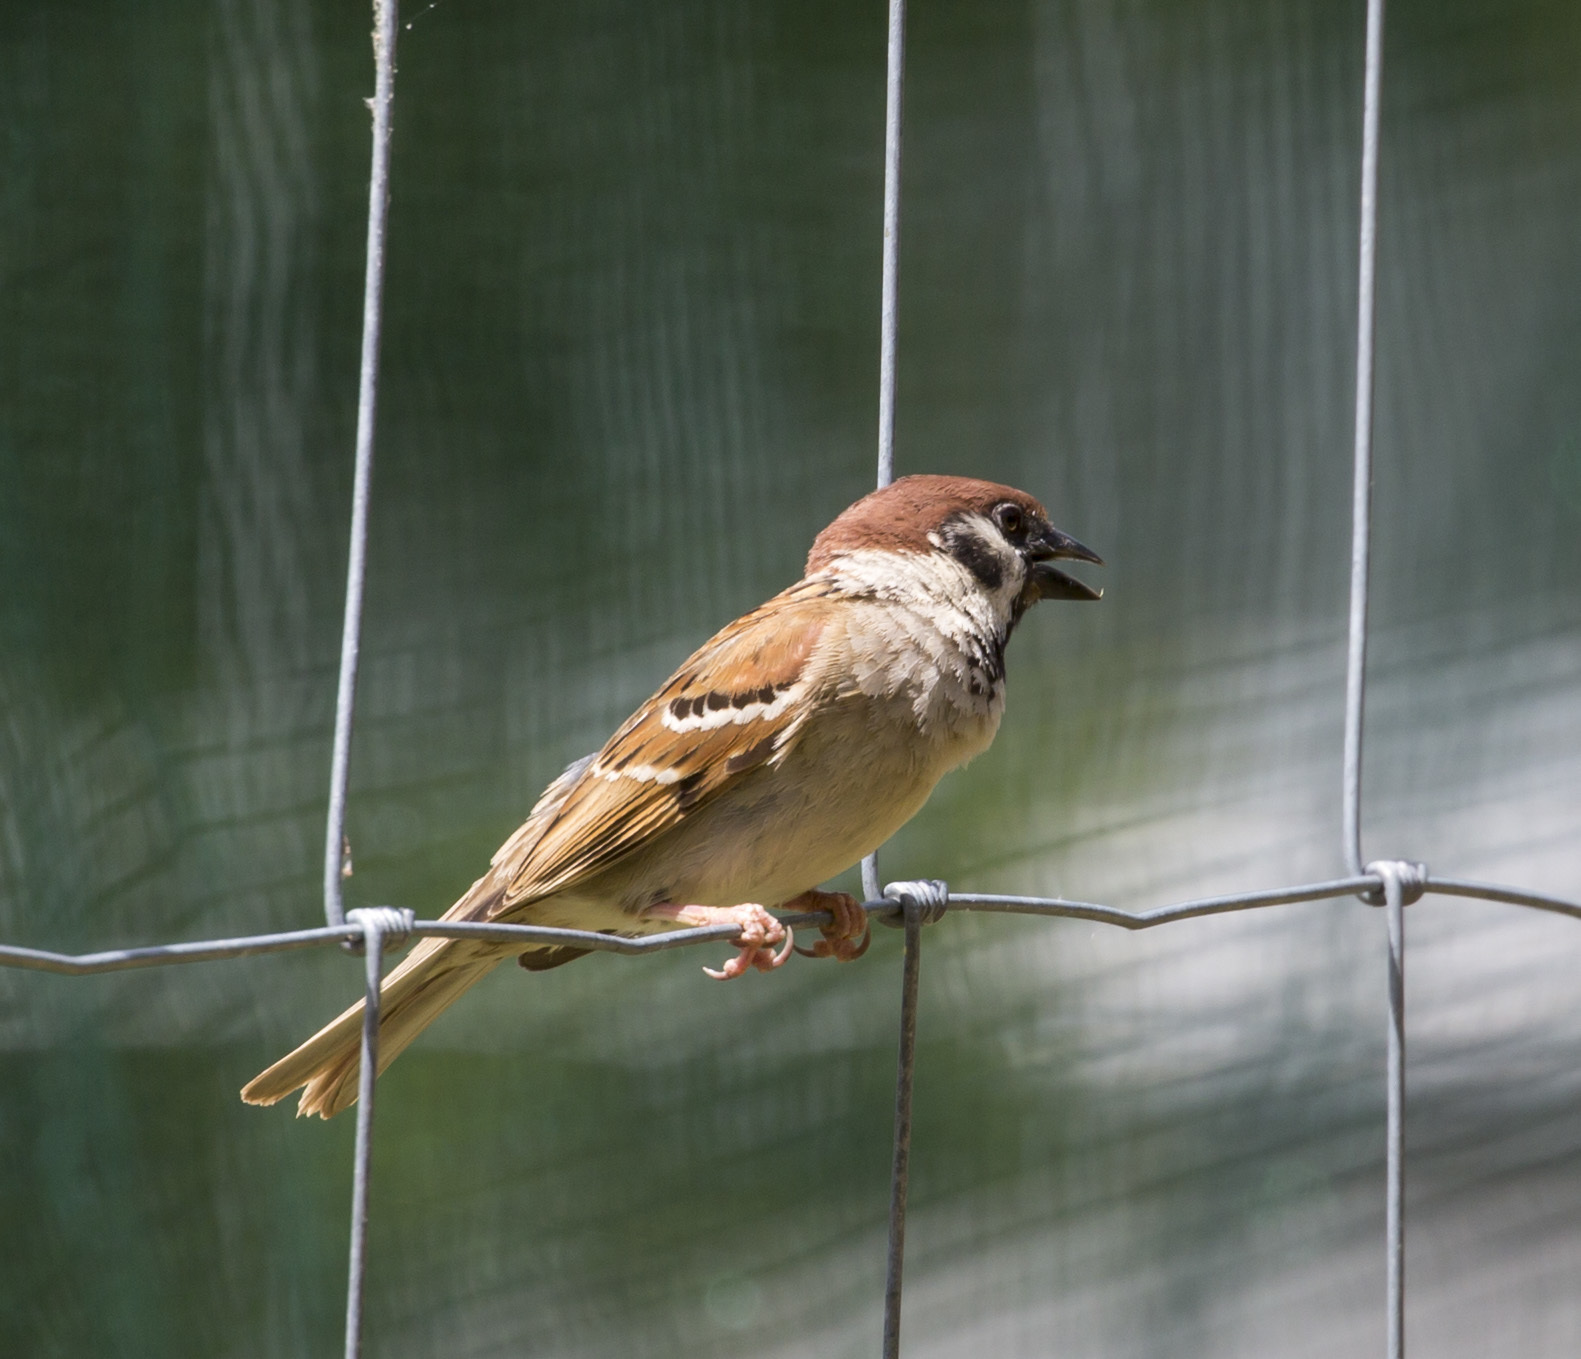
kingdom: Animalia
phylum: Chordata
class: Aves
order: Passeriformes
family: Passeridae
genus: Passer
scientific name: Passer montanus
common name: Eurasian tree sparrow
